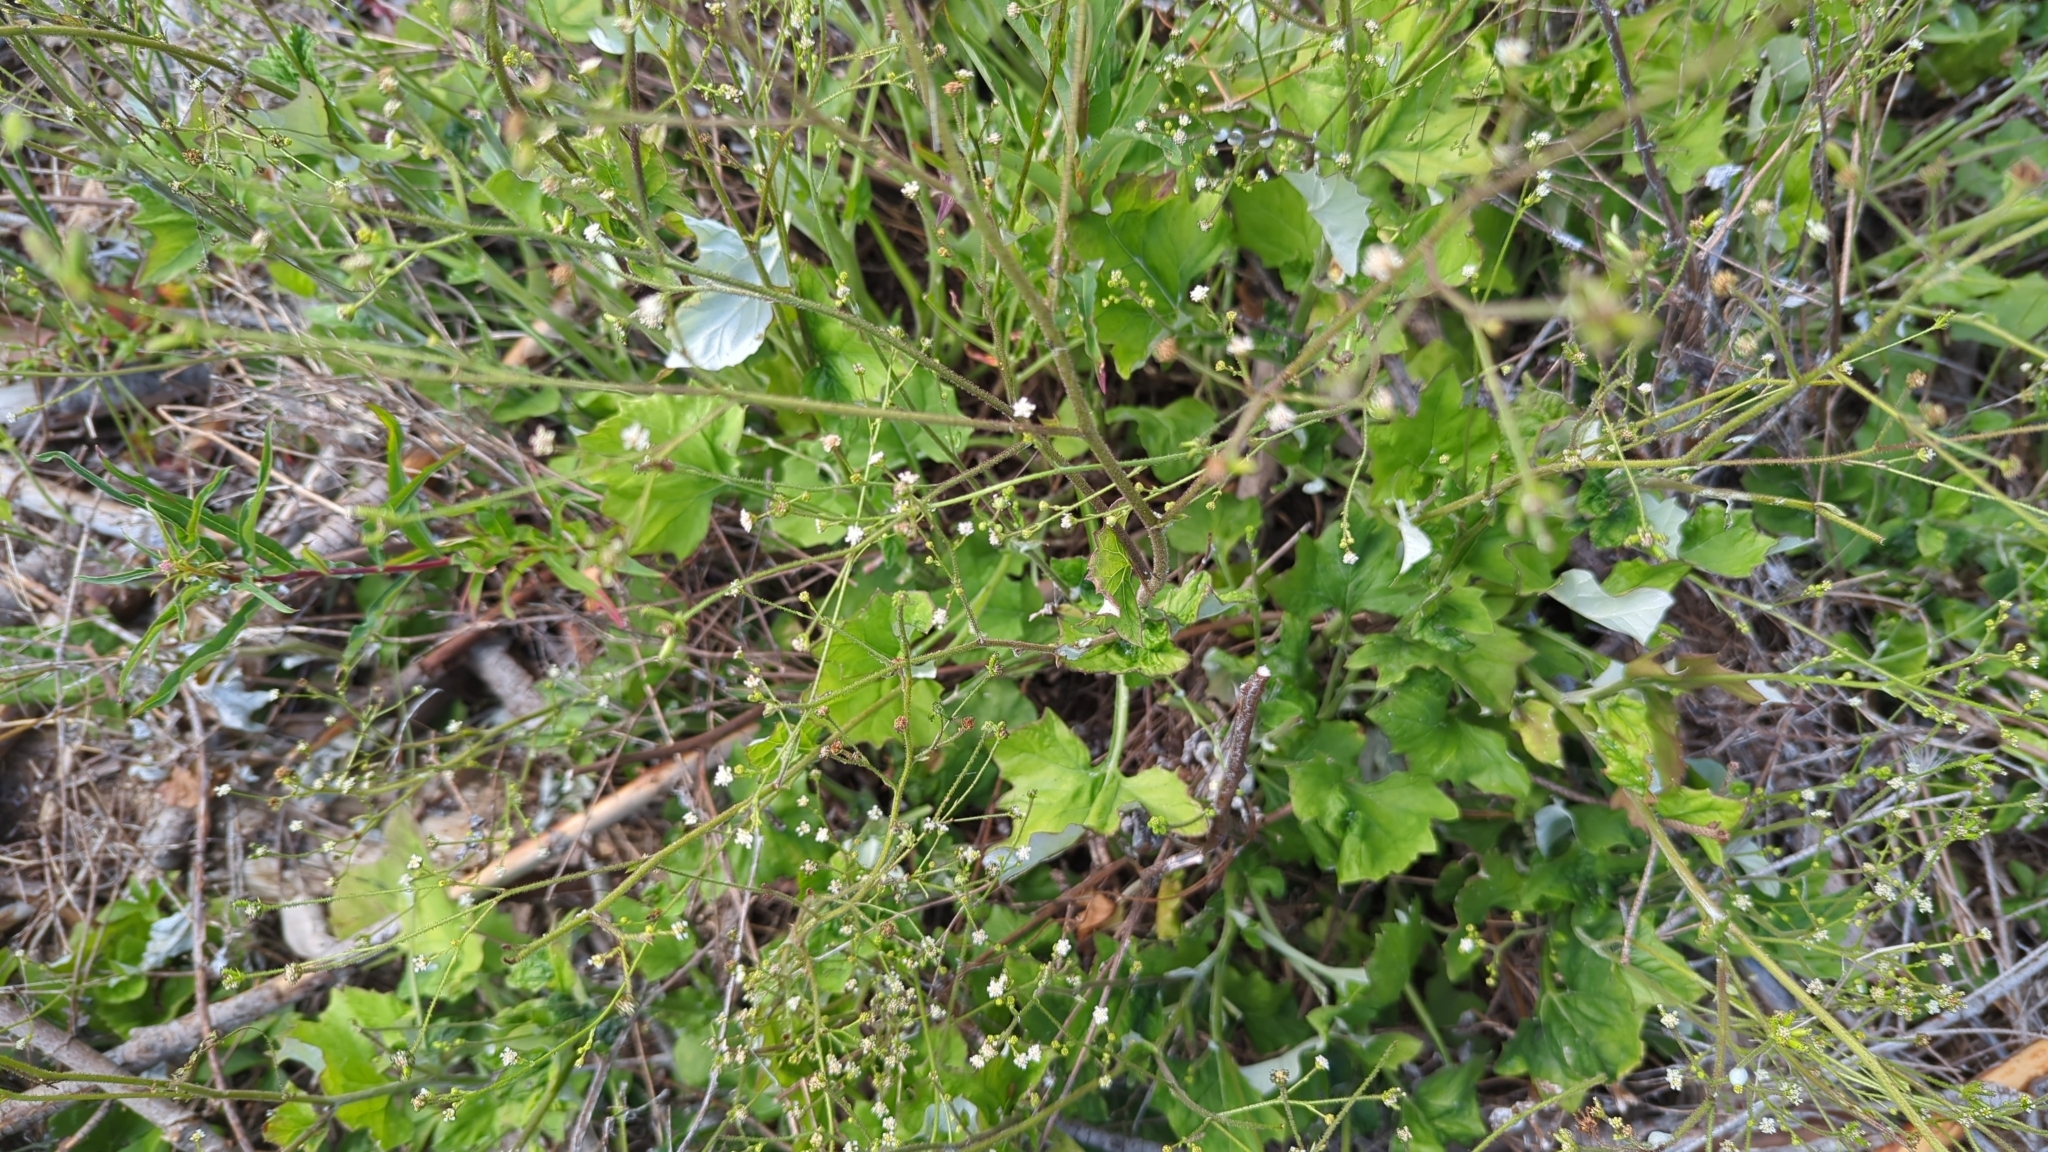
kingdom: Plantae
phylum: Tracheophyta
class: Magnoliopsida
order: Asterales
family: Asteraceae
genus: Adenocaulon
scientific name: Adenocaulon bicolor
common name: Trailplant
